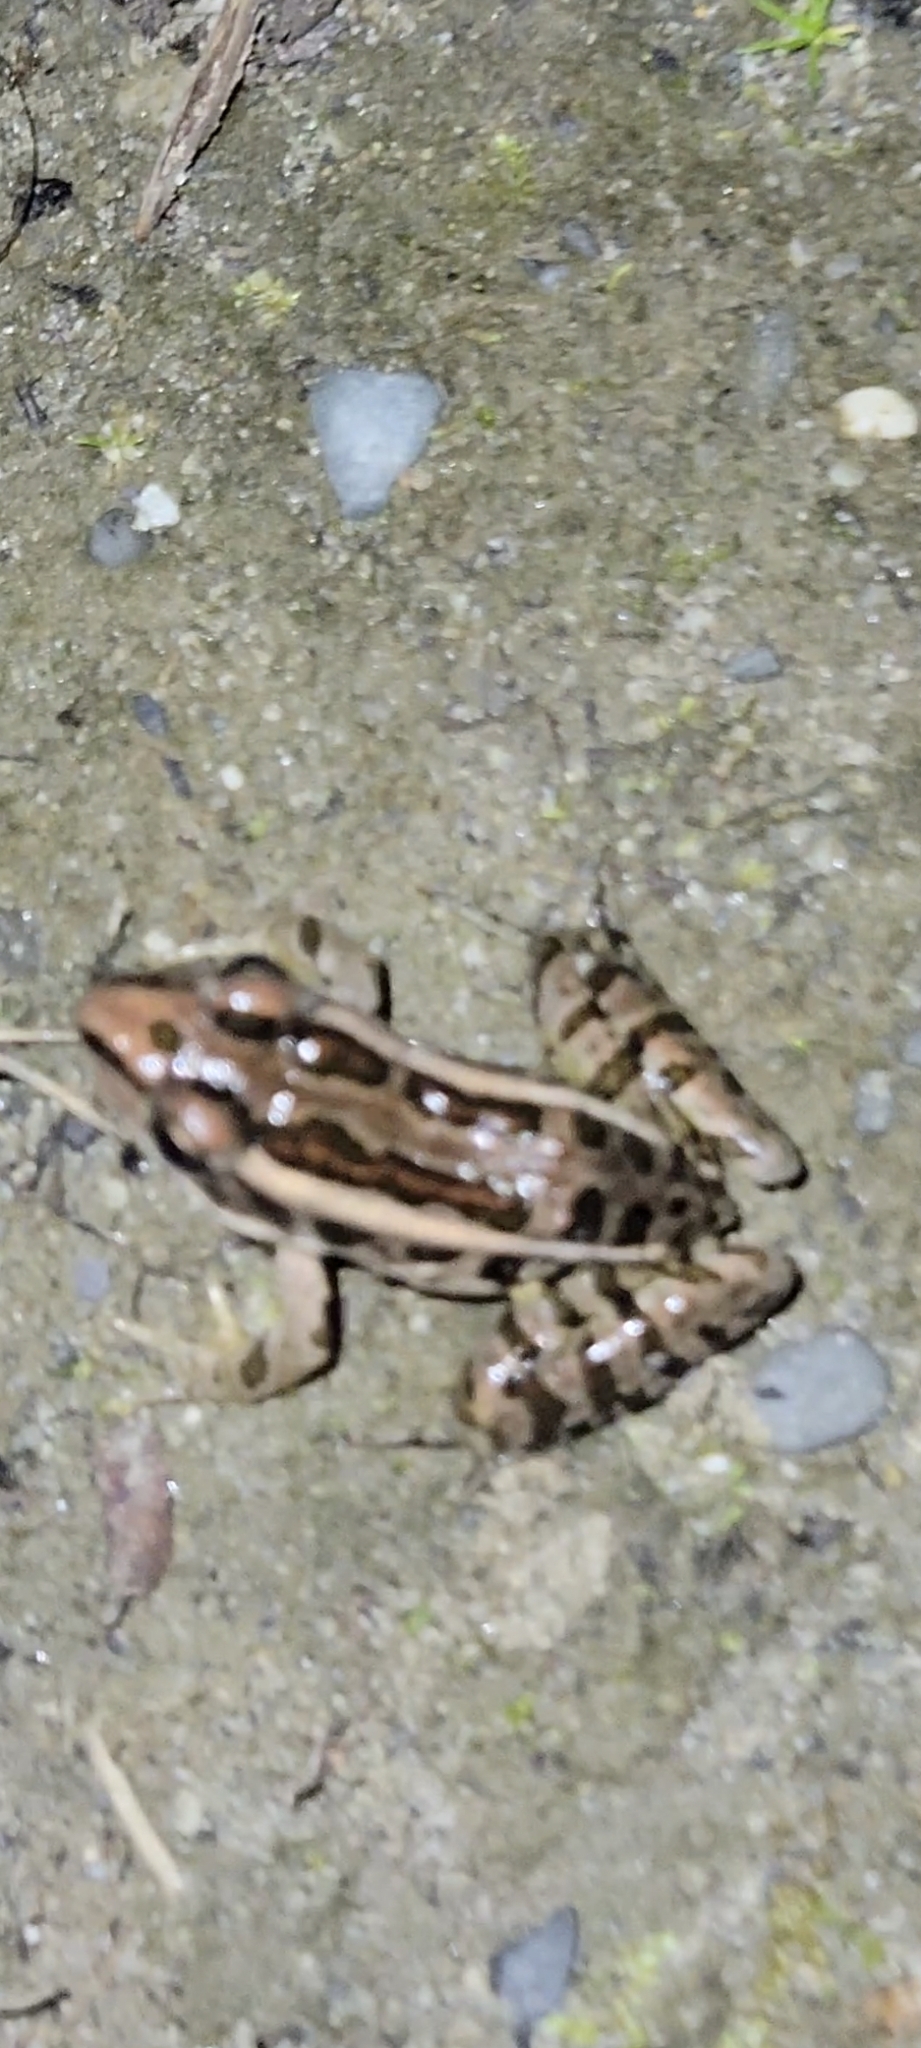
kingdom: Animalia
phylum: Chordata
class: Amphibia
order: Anura
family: Ranidae
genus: Lithobates
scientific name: Lithobates palustris
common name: Pickerel frog
